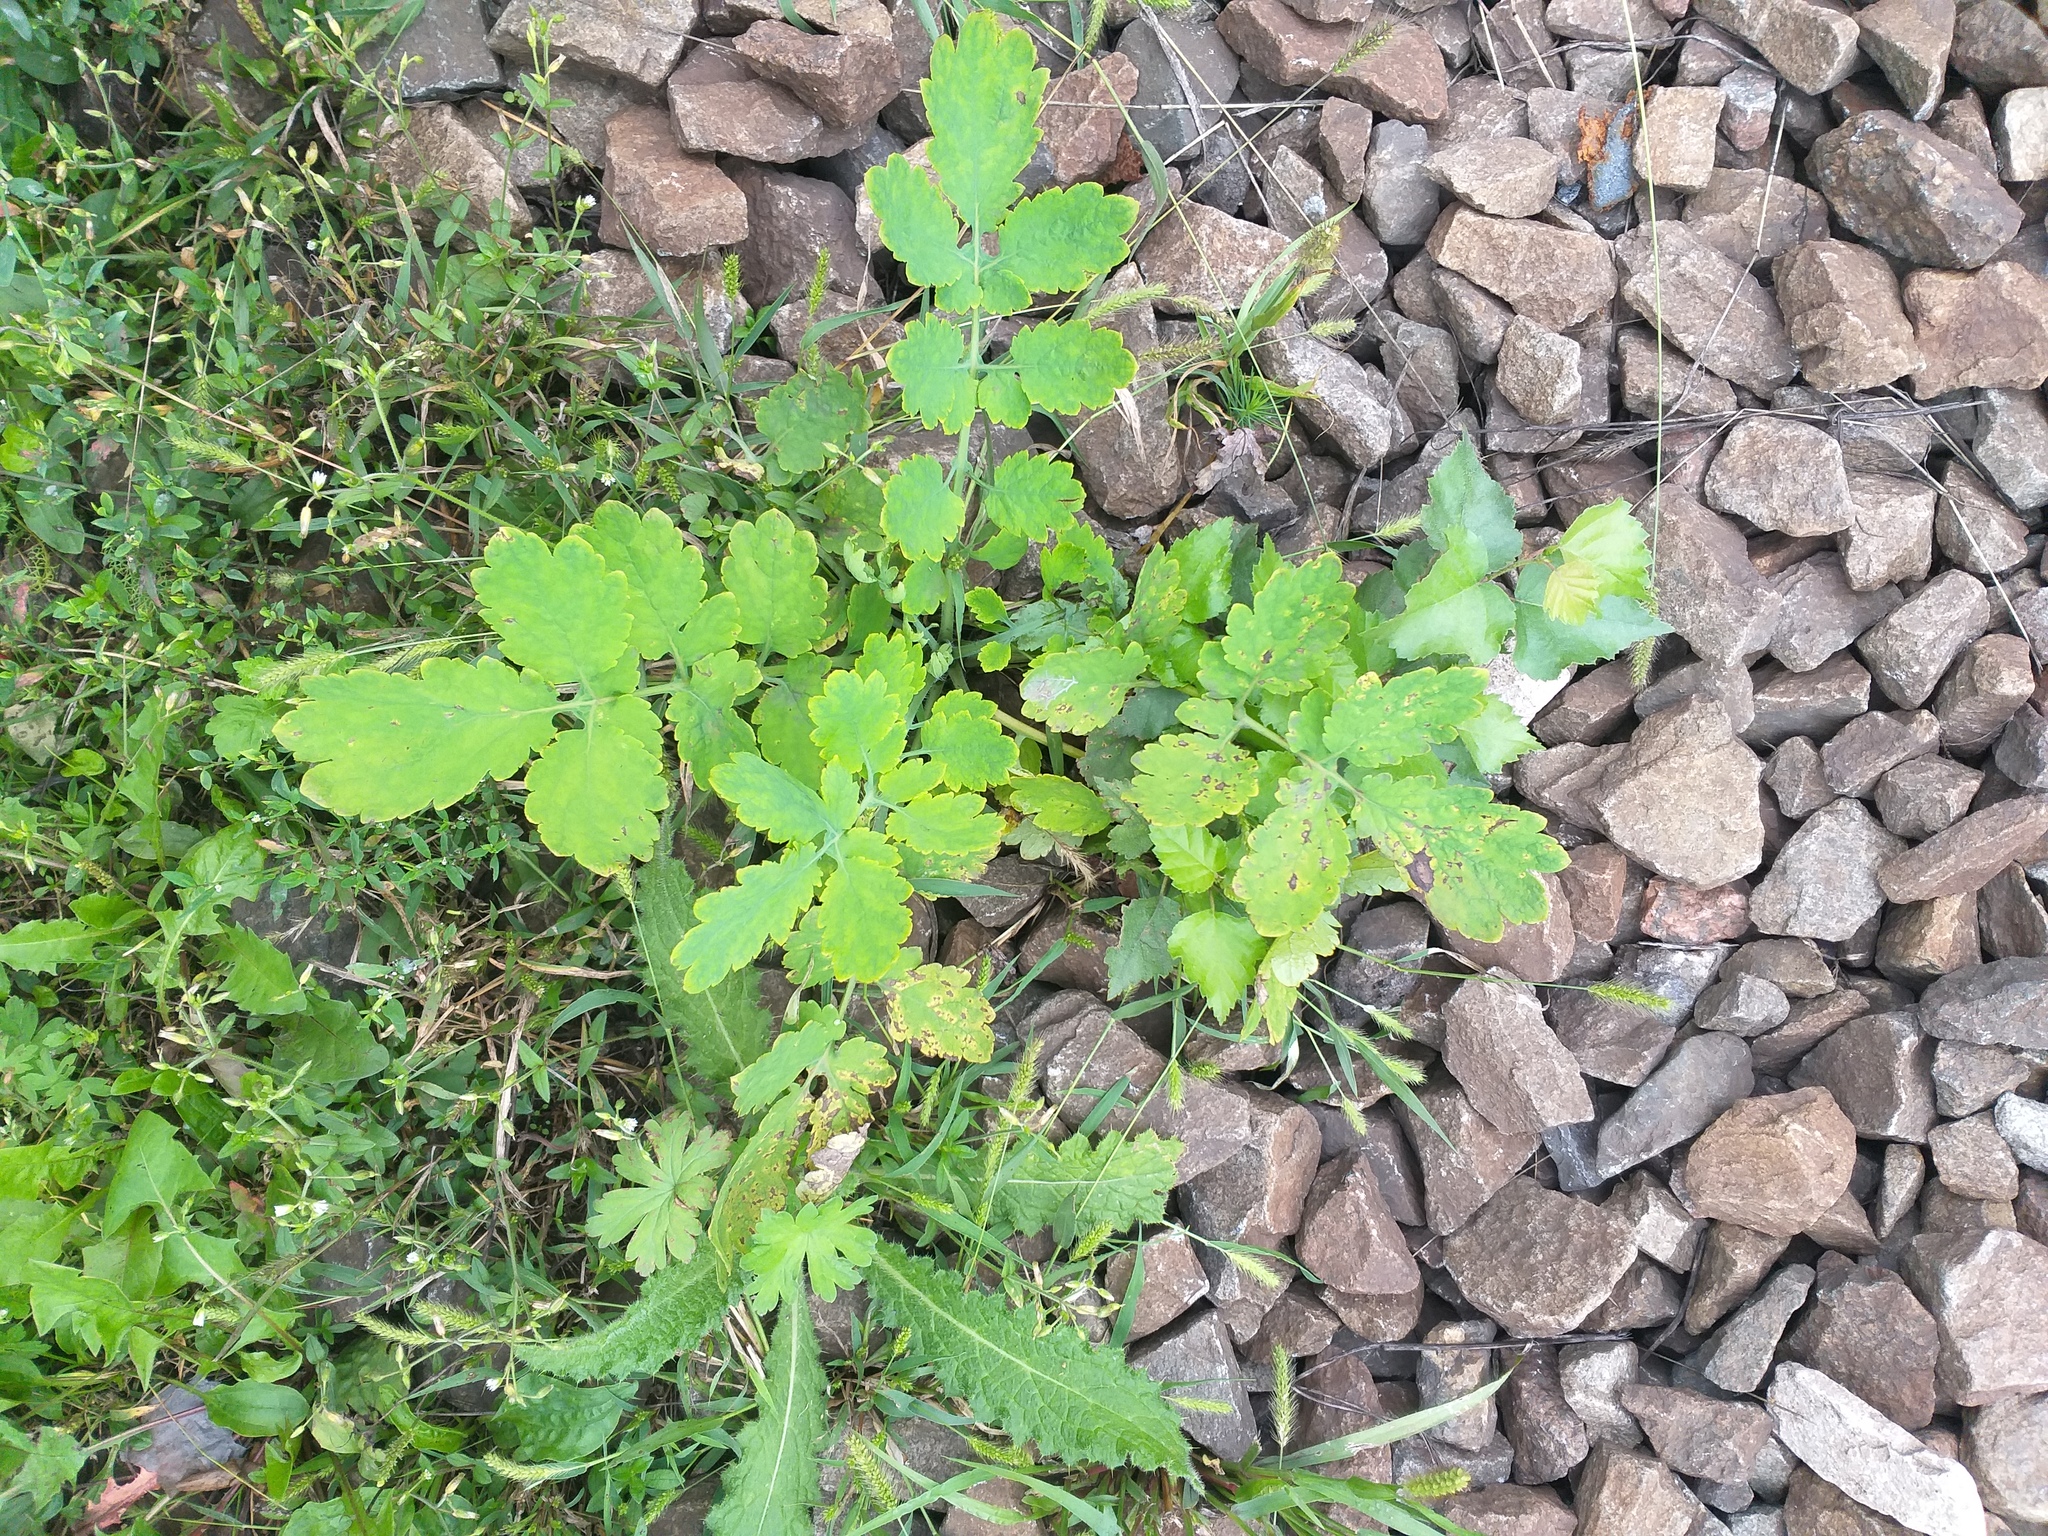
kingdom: Plantae
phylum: Tracheophyta
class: Magnoliopsida
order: Ranunculales
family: Papaveraceae
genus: Chelidonium
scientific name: Chelidonium majus
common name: Greater celandine
